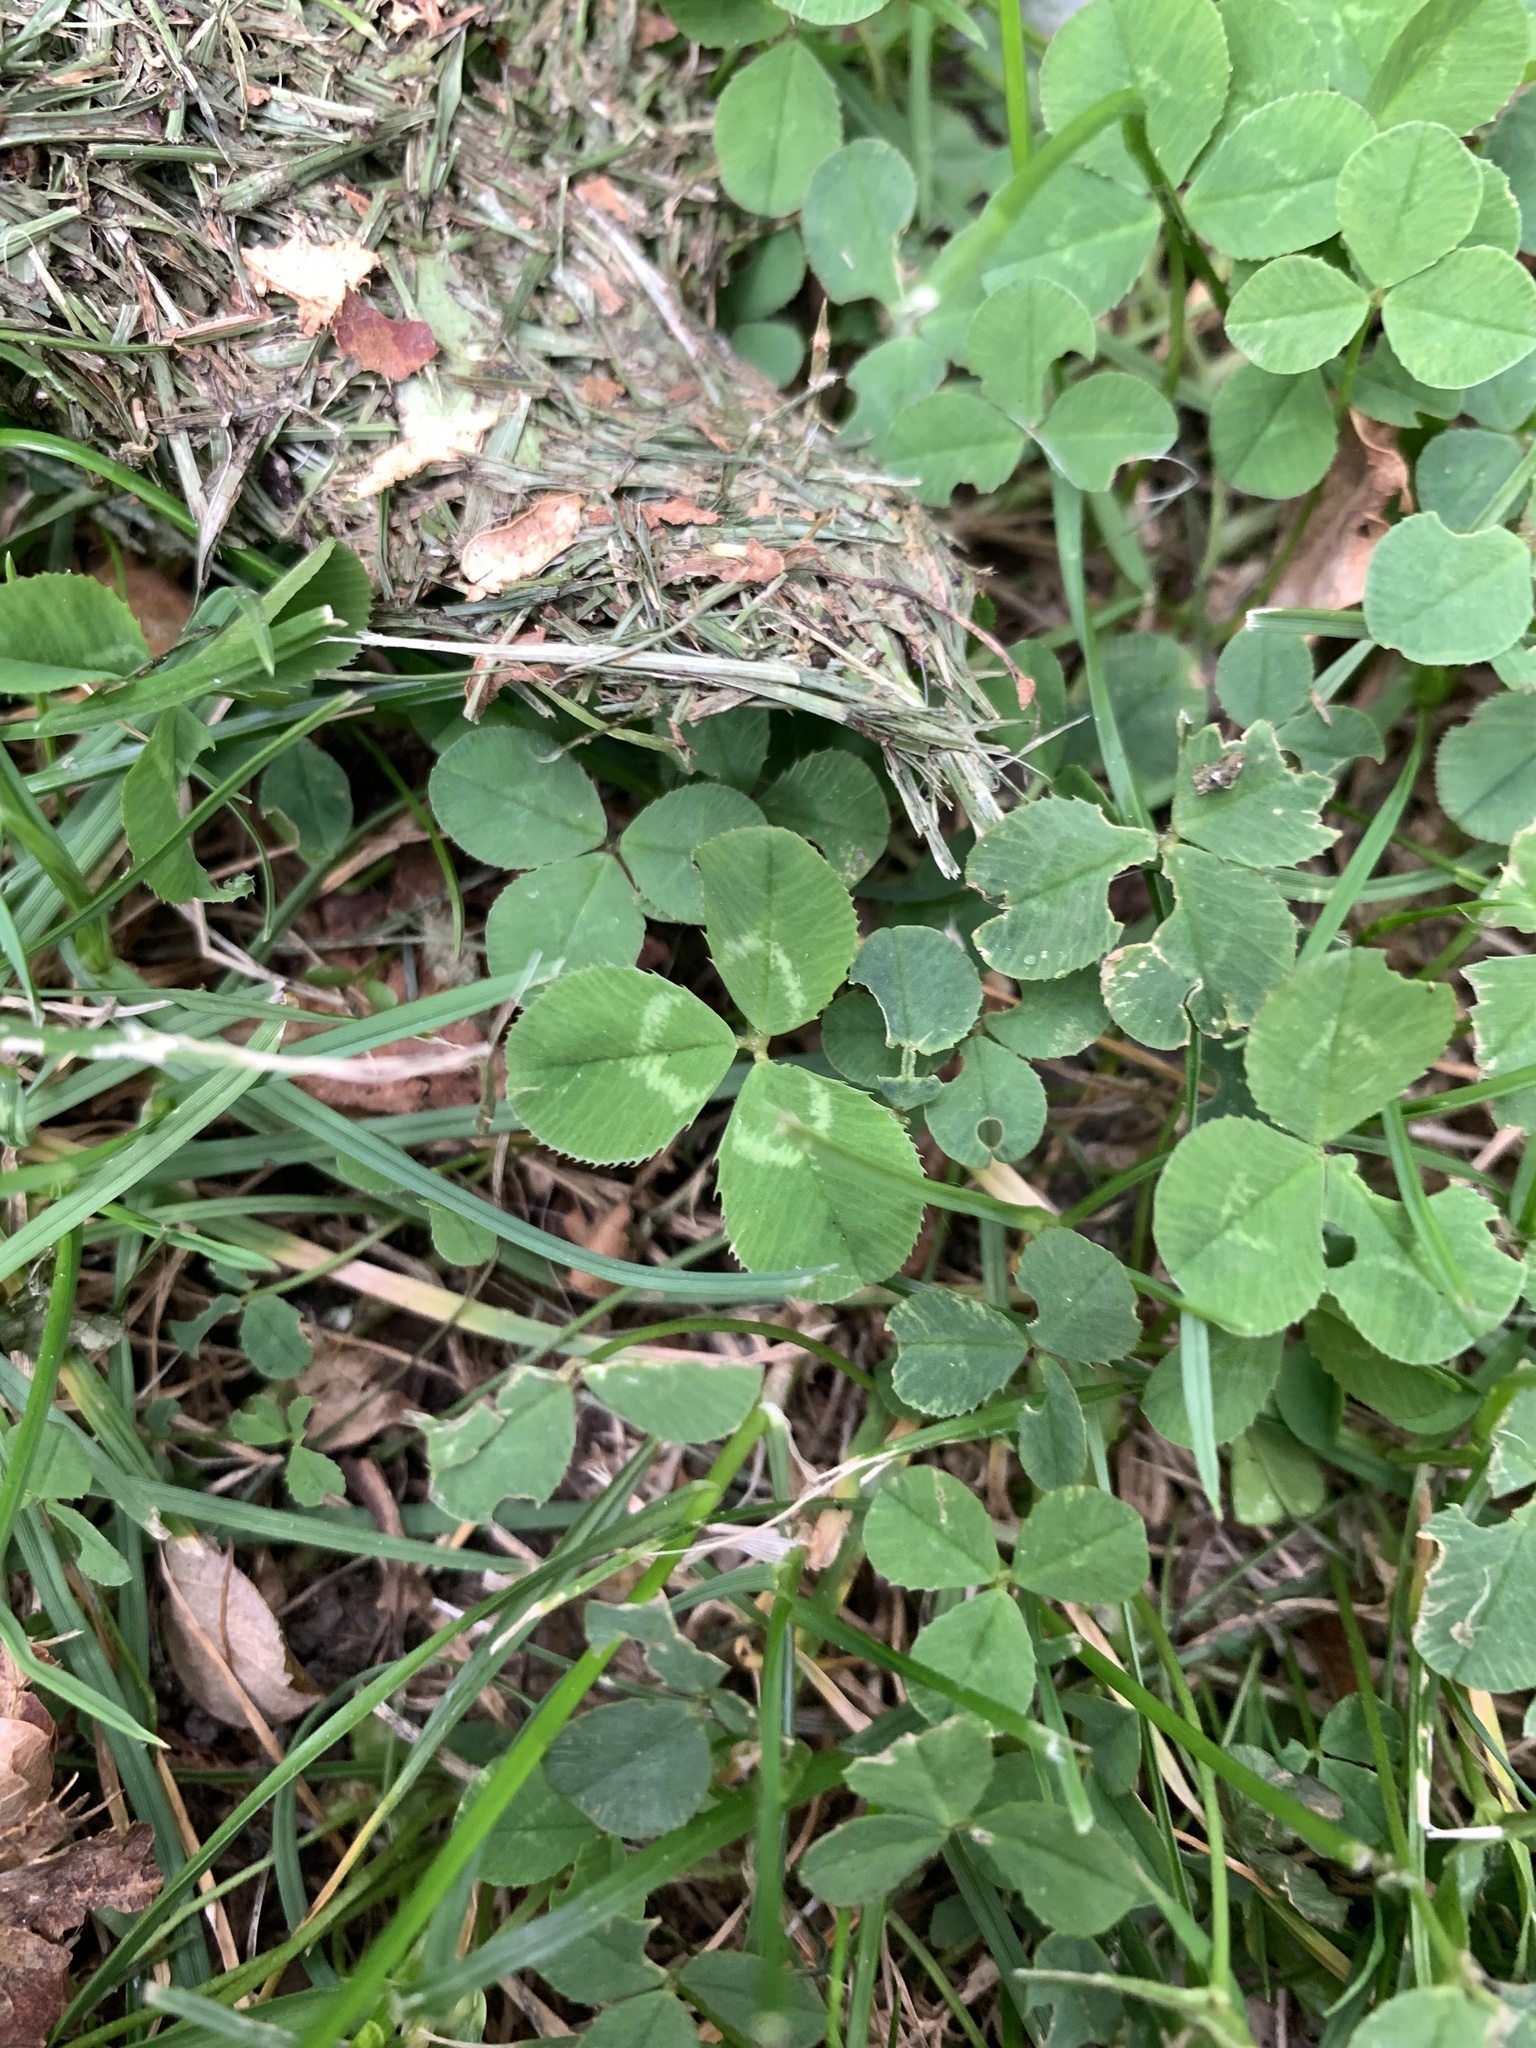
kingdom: Plantae
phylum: Tracheophyta
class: Magnoliopsida
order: Fabales
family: Fabaceae
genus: Trifolium
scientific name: Trifolium repens
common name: White clover
